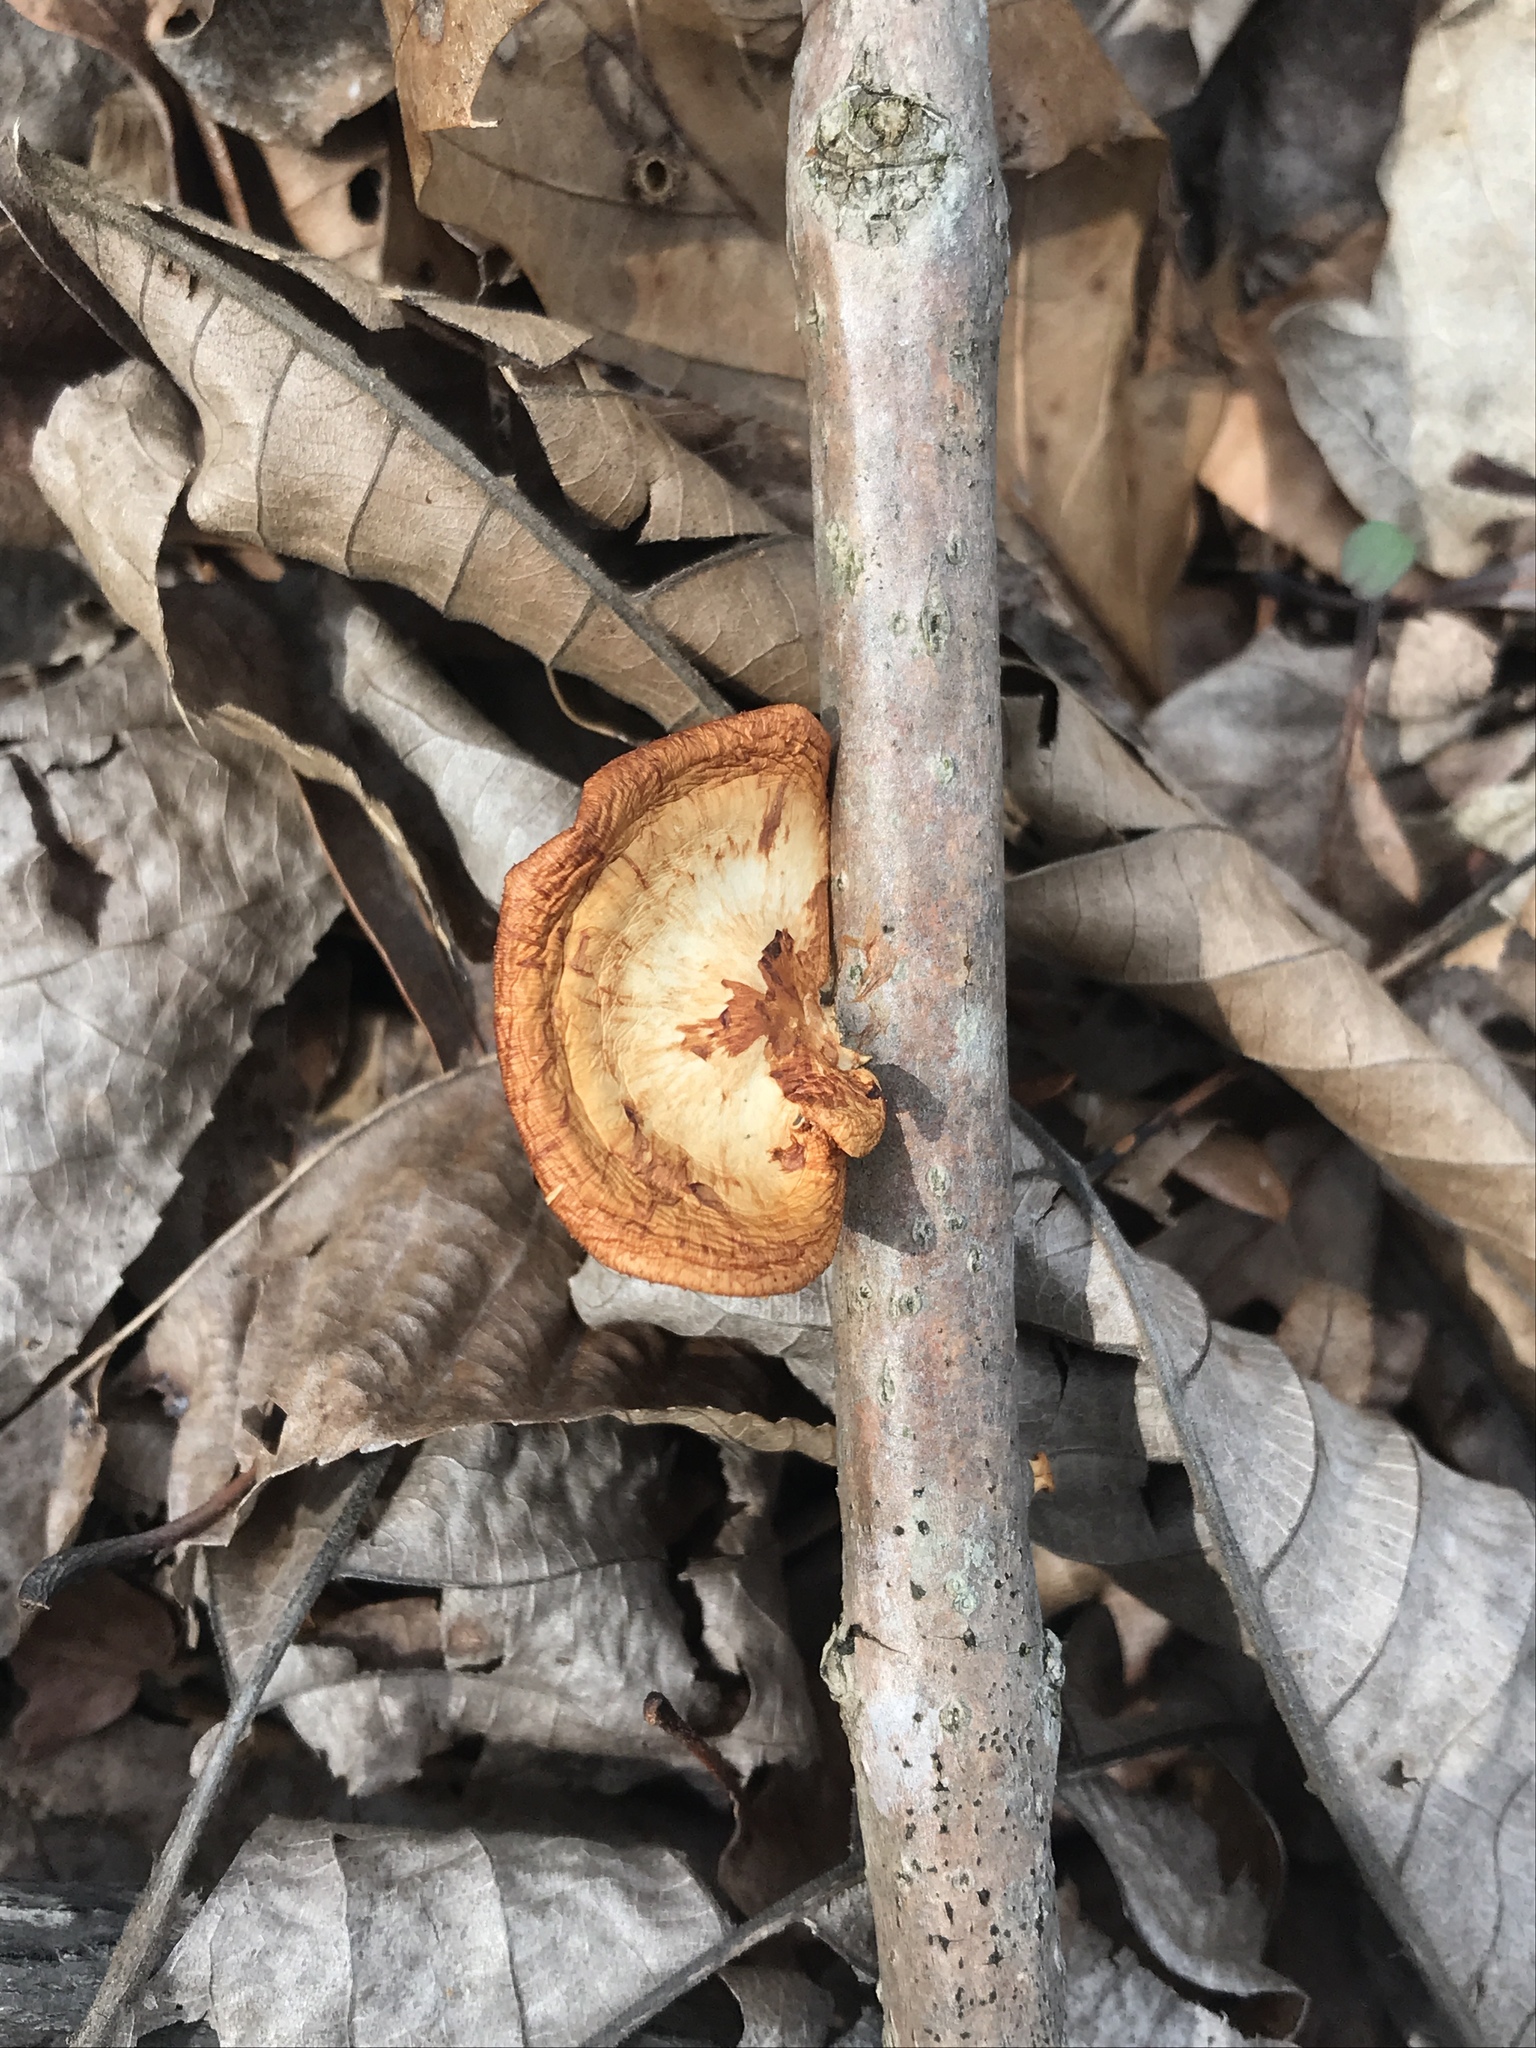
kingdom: Fungi
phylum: Basidiomycota
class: Agaricomycetes
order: Polyporales
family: Polyporaceae
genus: Neofavolus
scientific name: Neofavolus alveolaris
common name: Hexagonal-pored polypore
